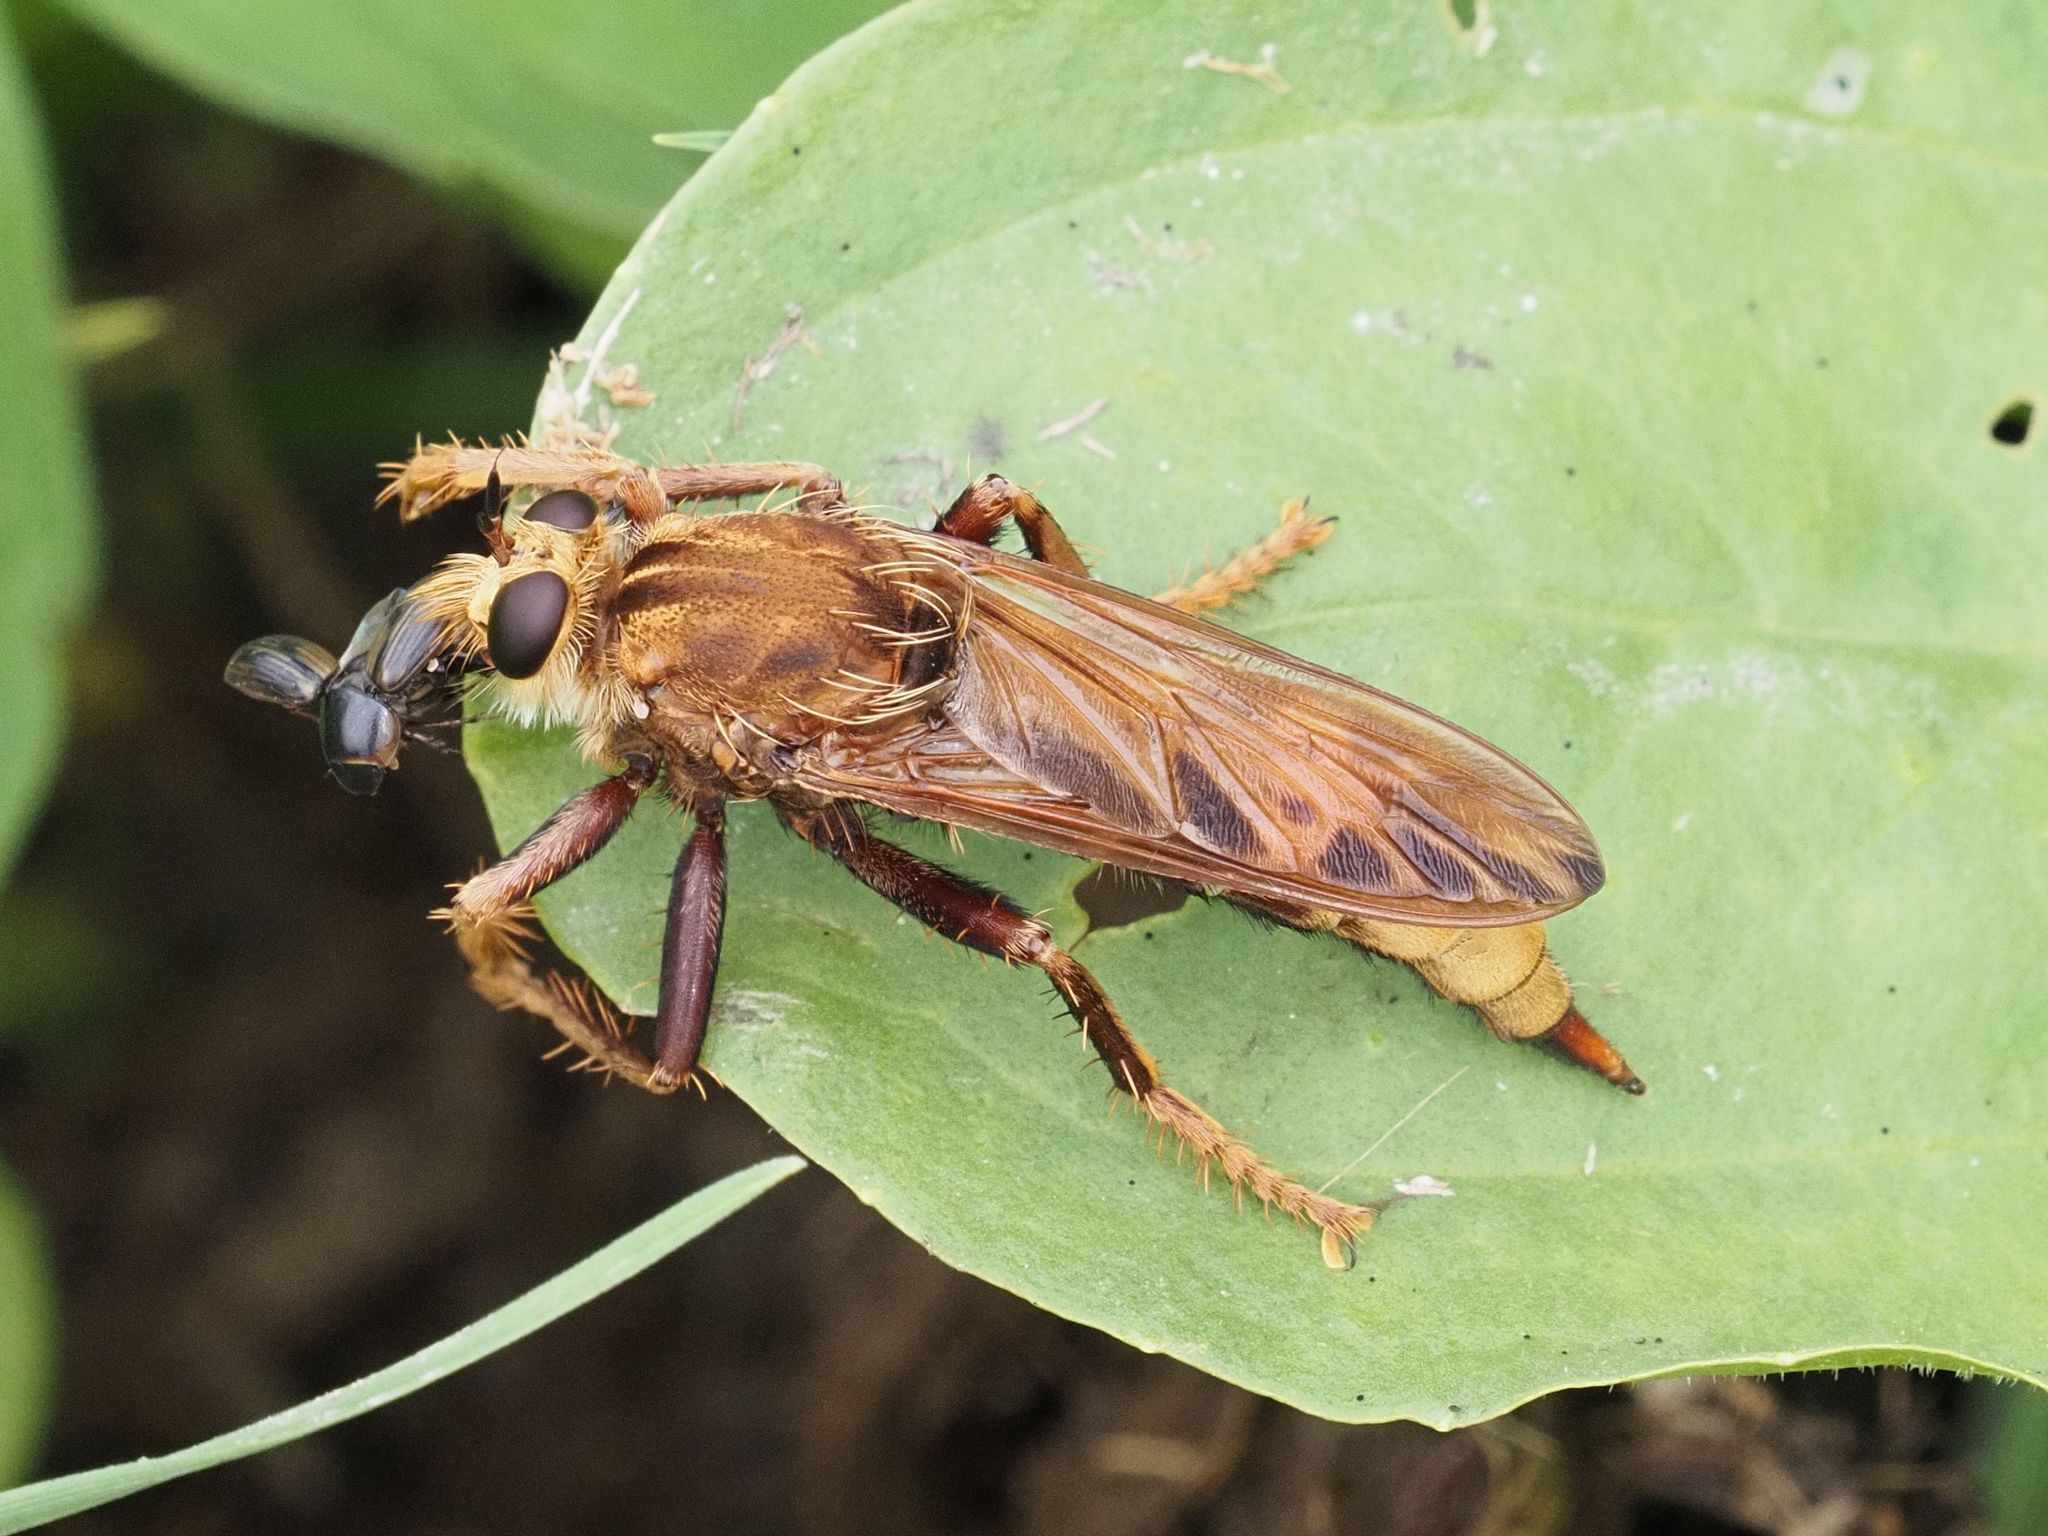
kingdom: Animalia
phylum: Arthropoda
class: Insecta
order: Diptera
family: Asilidae
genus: Asilus
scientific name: Asilus crabroniformis
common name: Hornet robberfly
